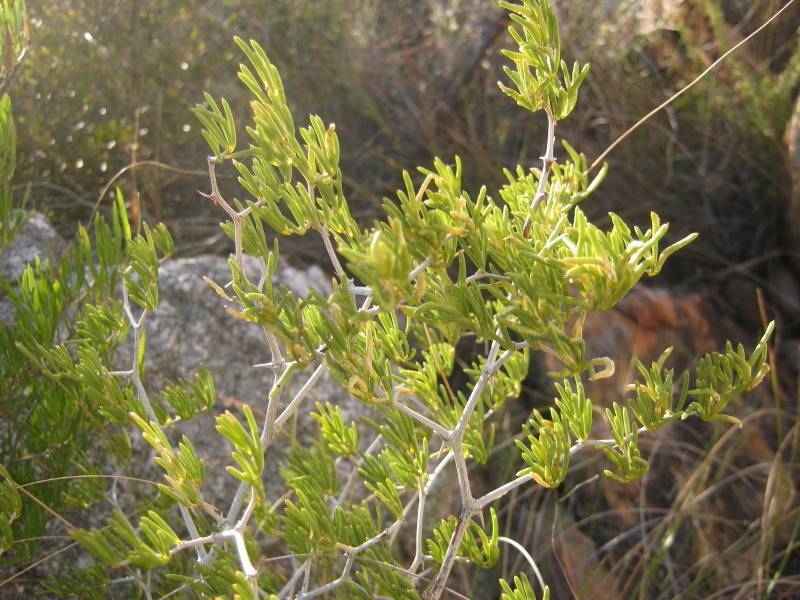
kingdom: Plantae
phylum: Tracheophyta
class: Liliopsida
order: Asparagales
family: Asparagaceae
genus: Asparagus
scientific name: Asparagus lignosus
